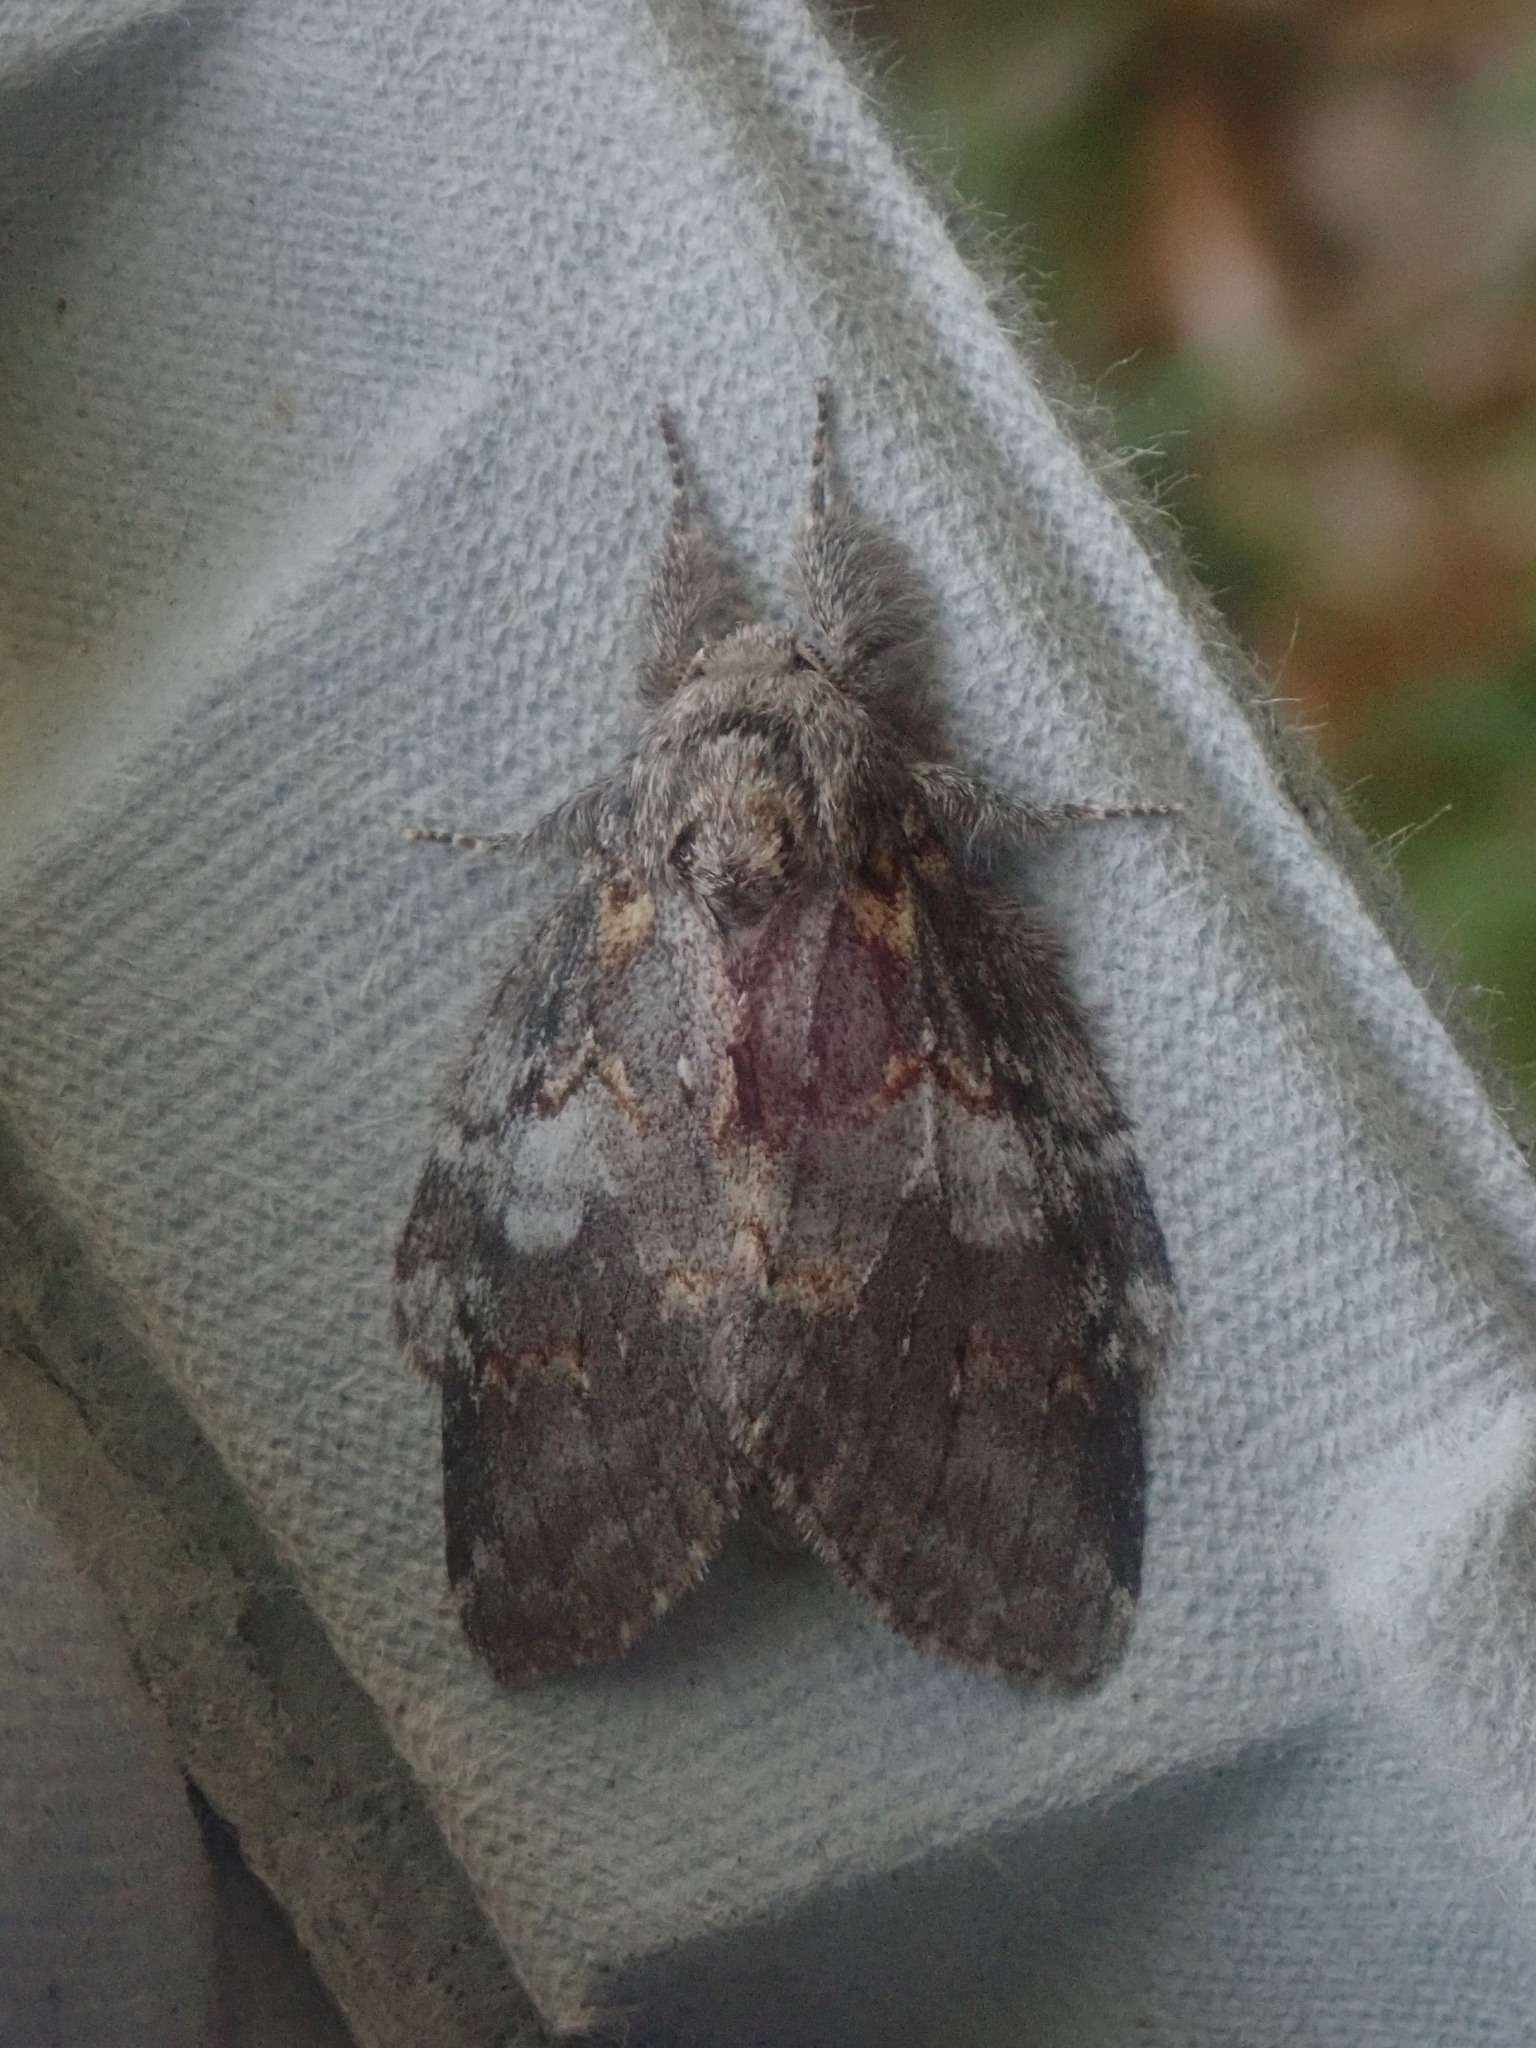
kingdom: Animalia
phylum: Arthropoda
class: Insecta
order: Lepidoptera
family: Notodontidae
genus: Peridea
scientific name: Peridea angulosa
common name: Angulose prominent
